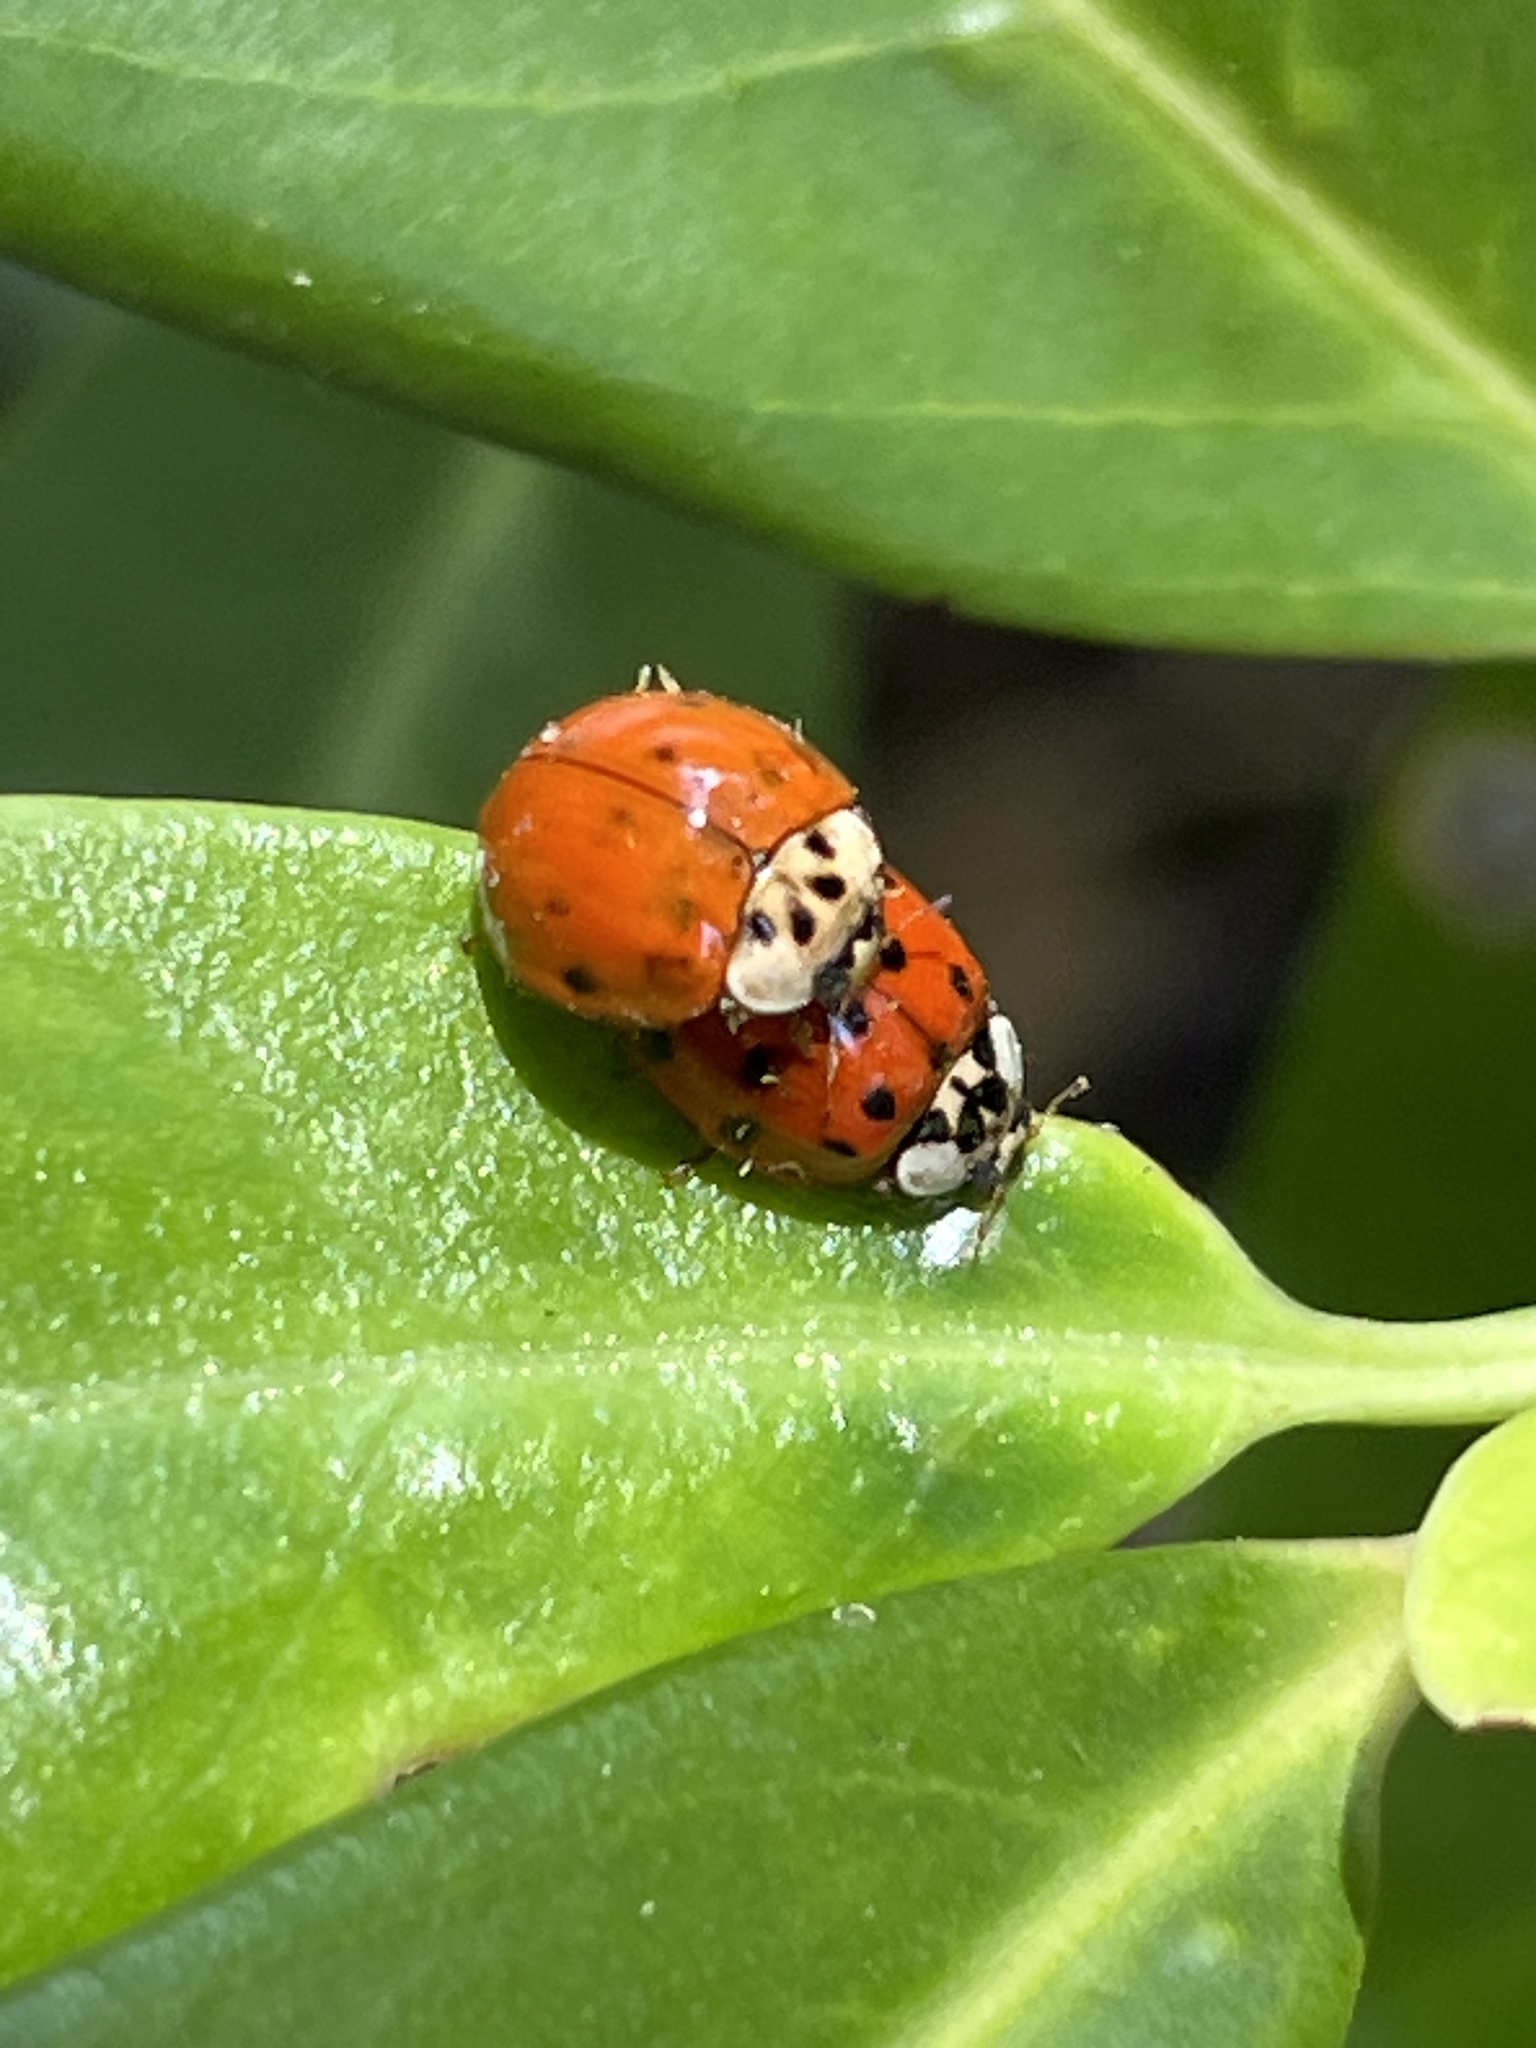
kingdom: Animalia
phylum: Arthropoda
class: Insecta
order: Coleoptera
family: Coccinellidae
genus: Harmonia
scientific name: Harmonia axyridis
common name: Harlequin ladybird
